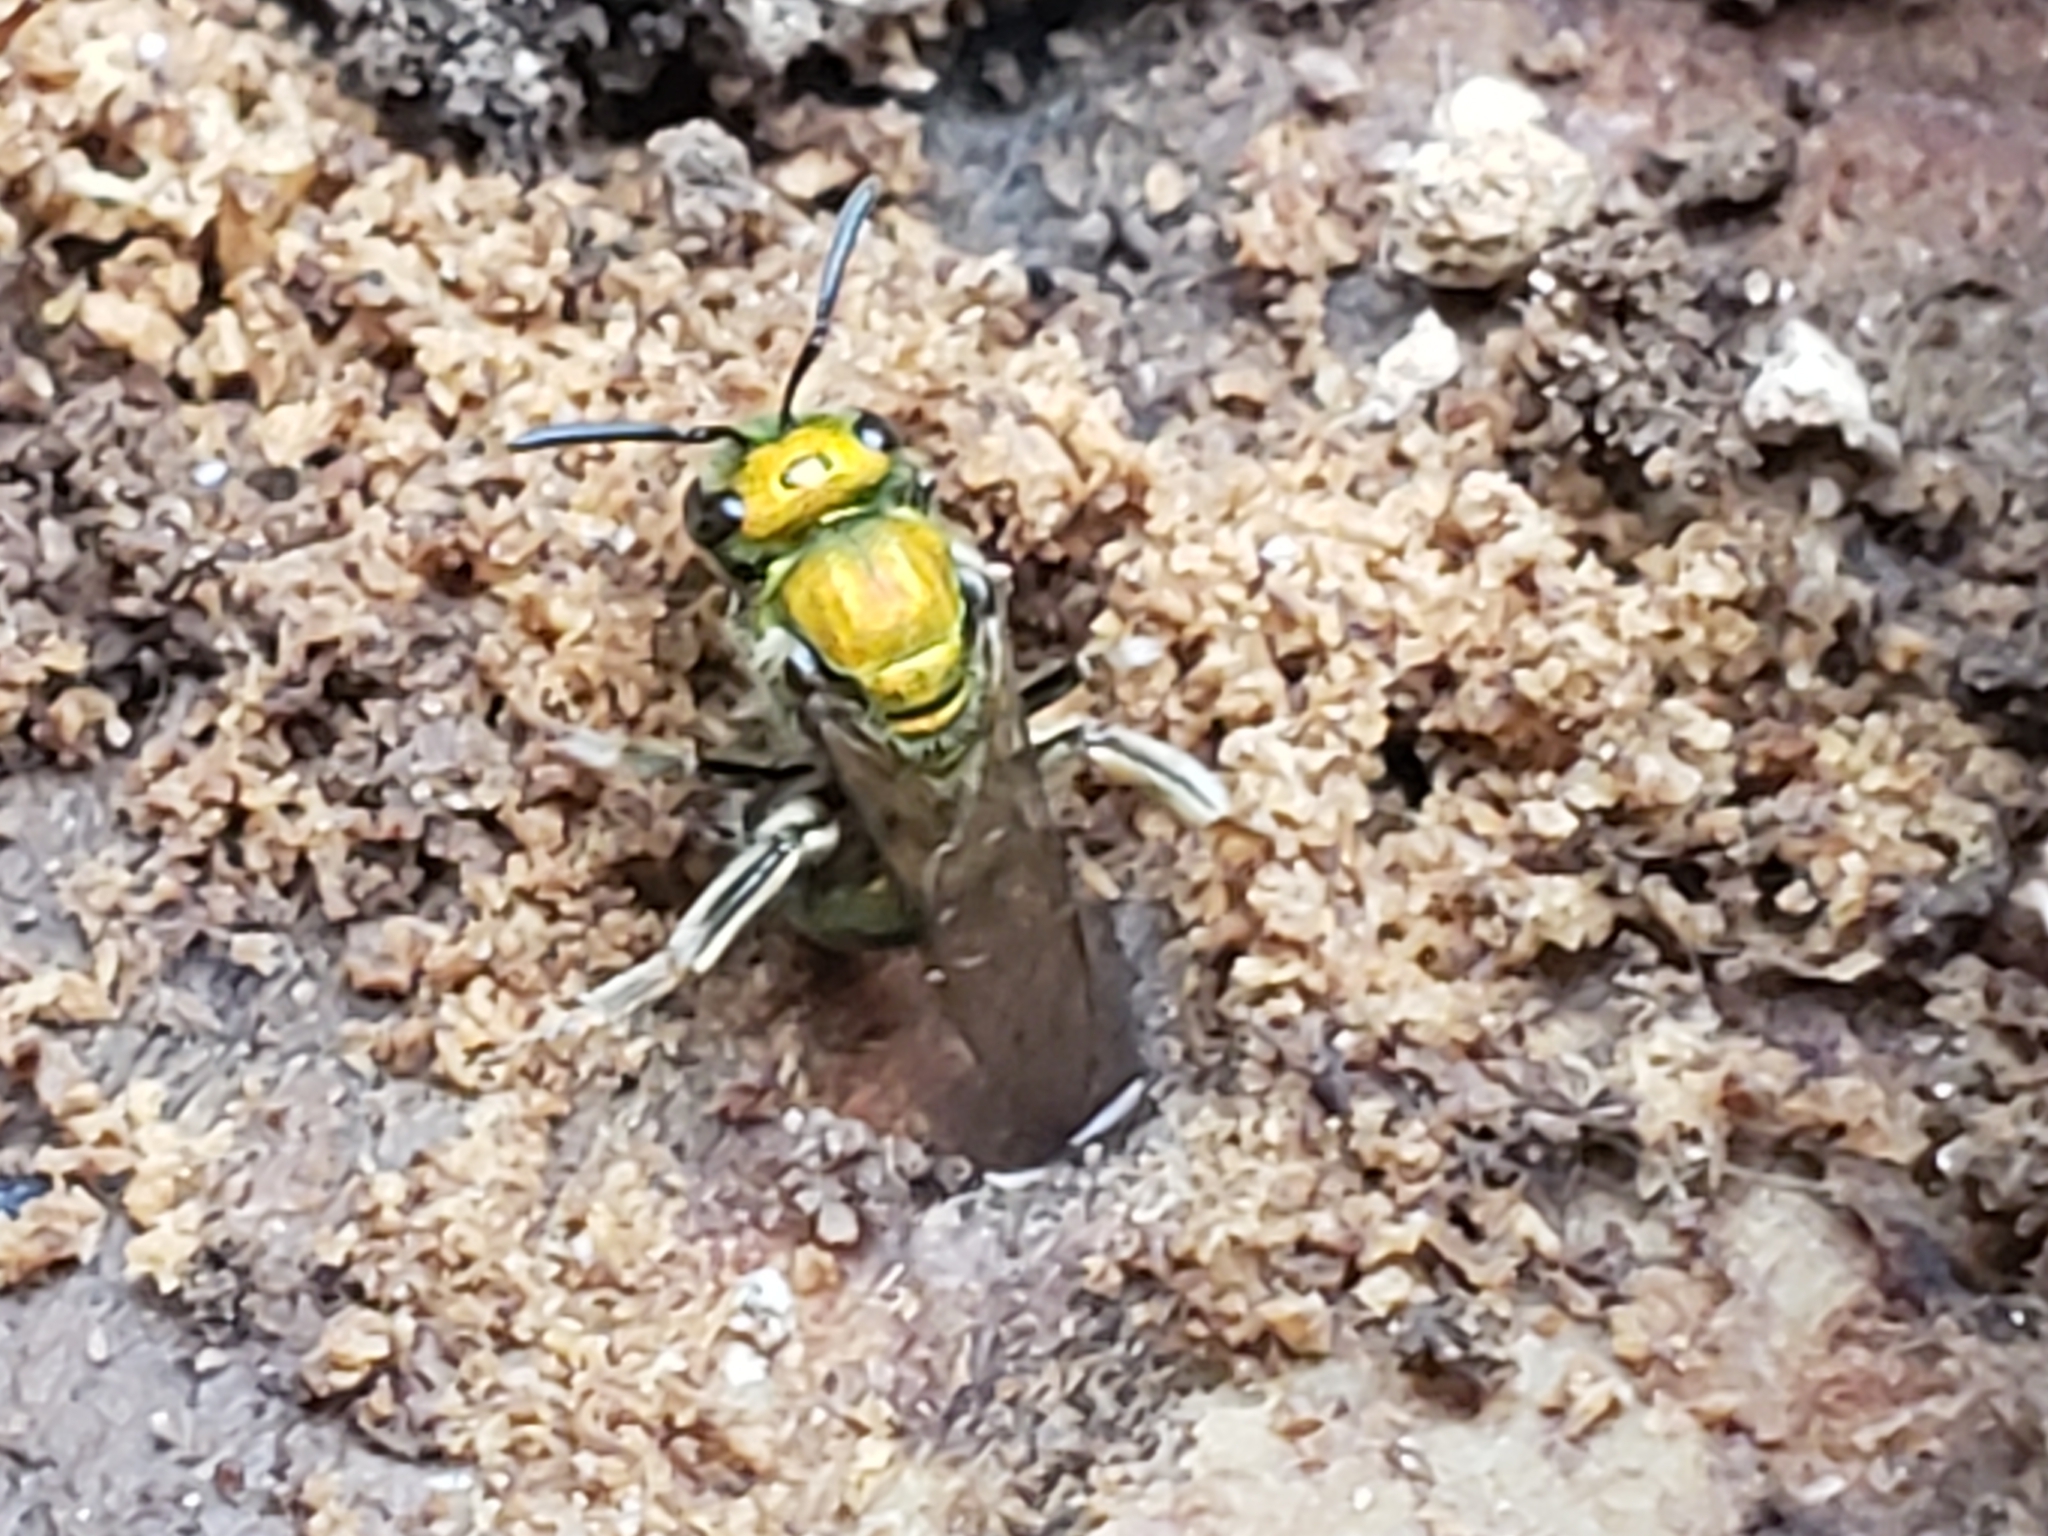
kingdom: Animalia
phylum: Arthropoda
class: Insecta
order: Hymenoptera
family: Halictidae
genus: Augochlora
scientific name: Augochlora pura
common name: Pure green sweat bee
